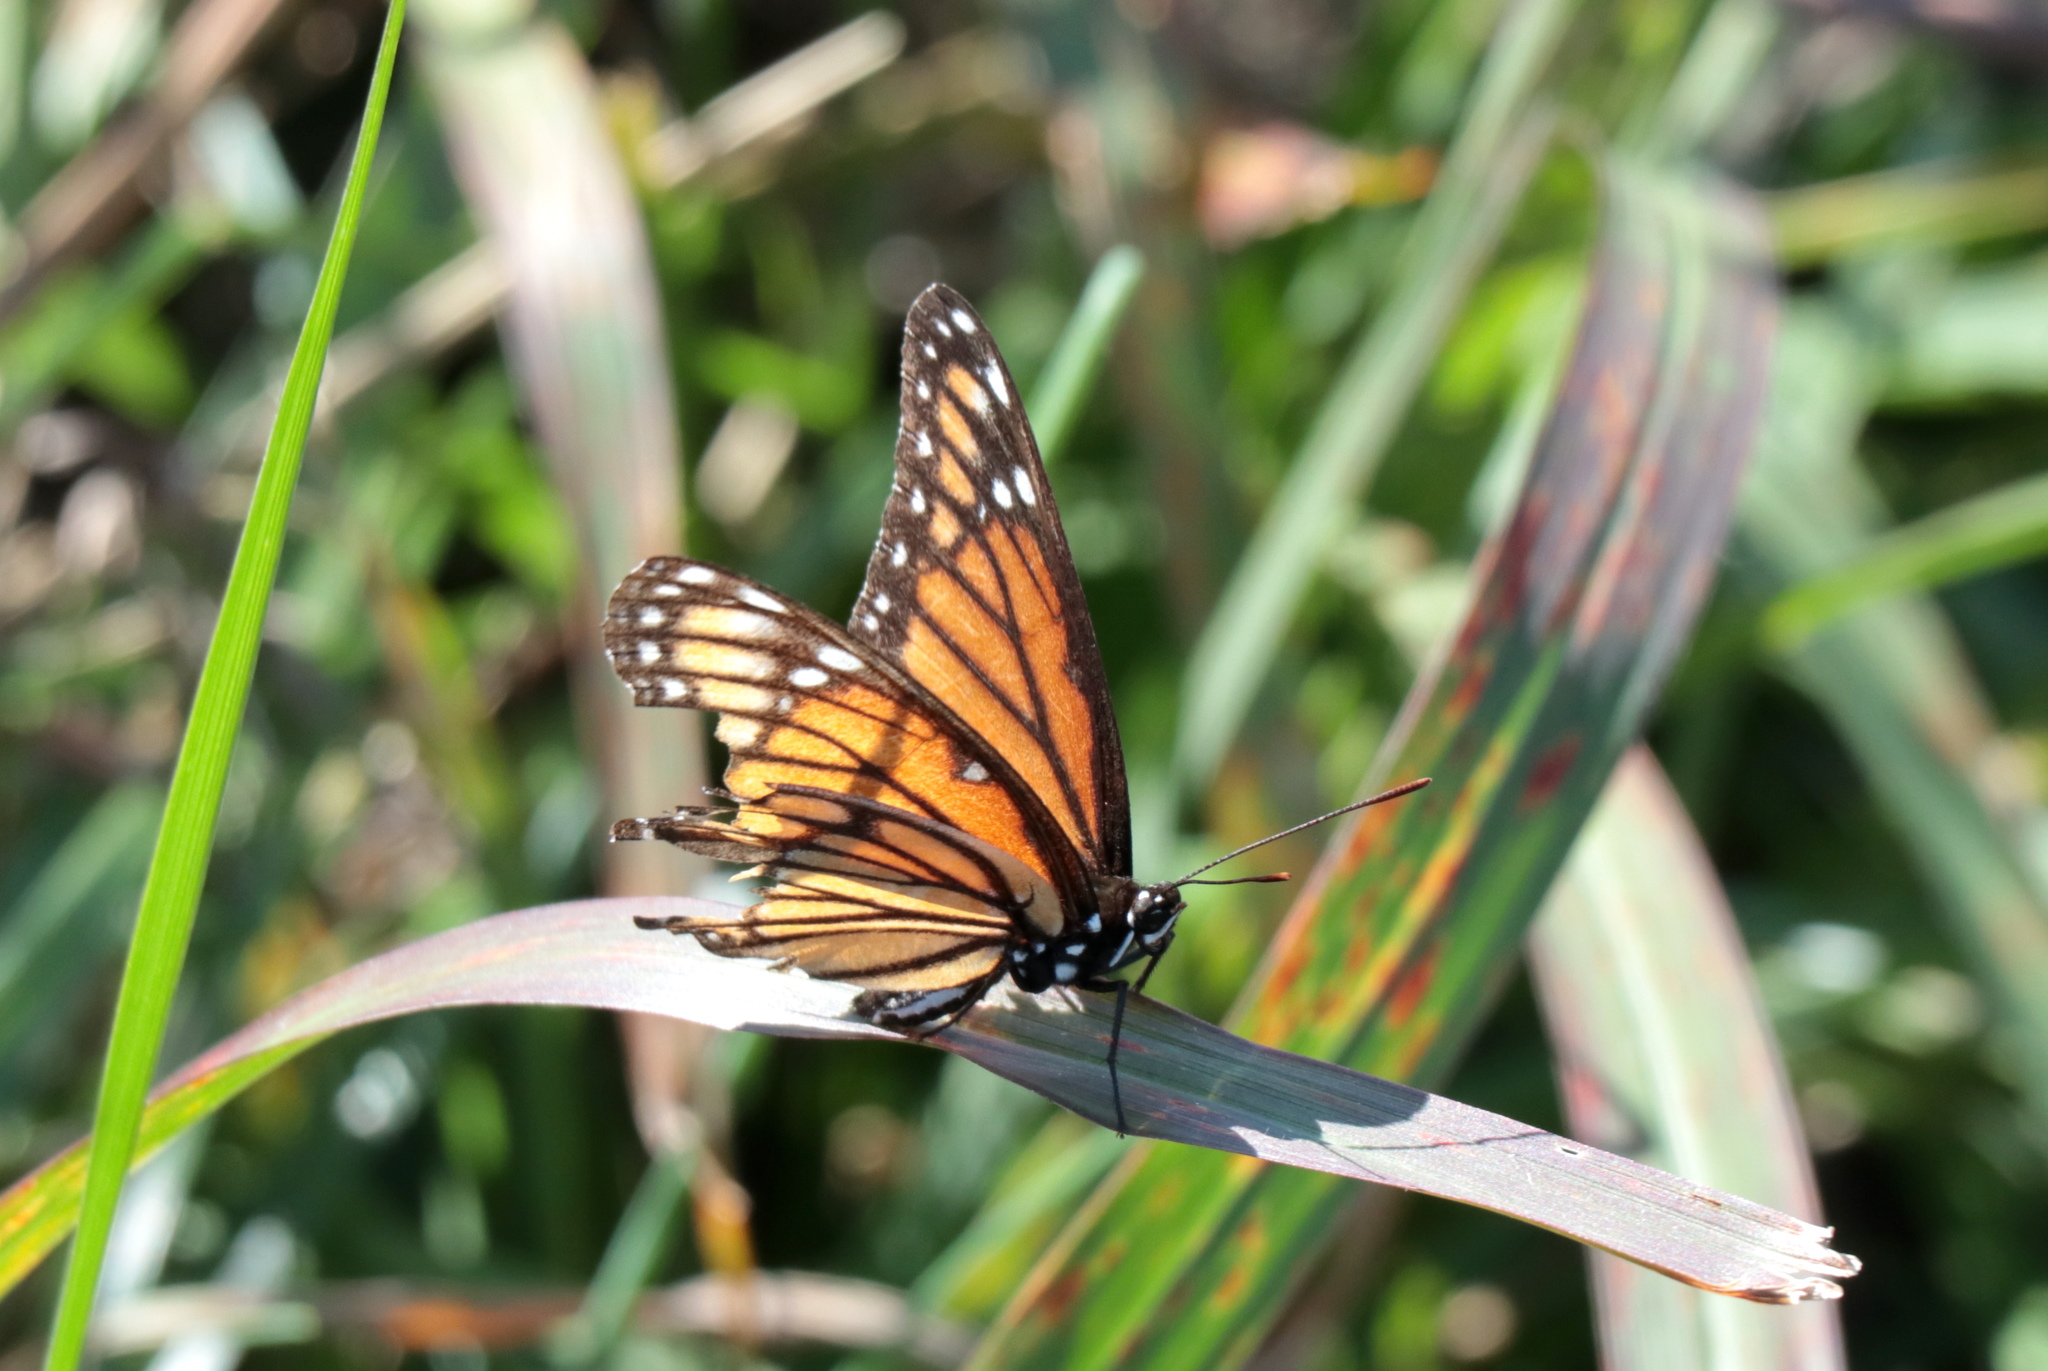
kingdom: Animalia
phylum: Arthropoda
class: Insecta
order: Lepidoptera
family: Nymphalidae
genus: Limenitis
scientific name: Limenitis archippus
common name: Viceroy
